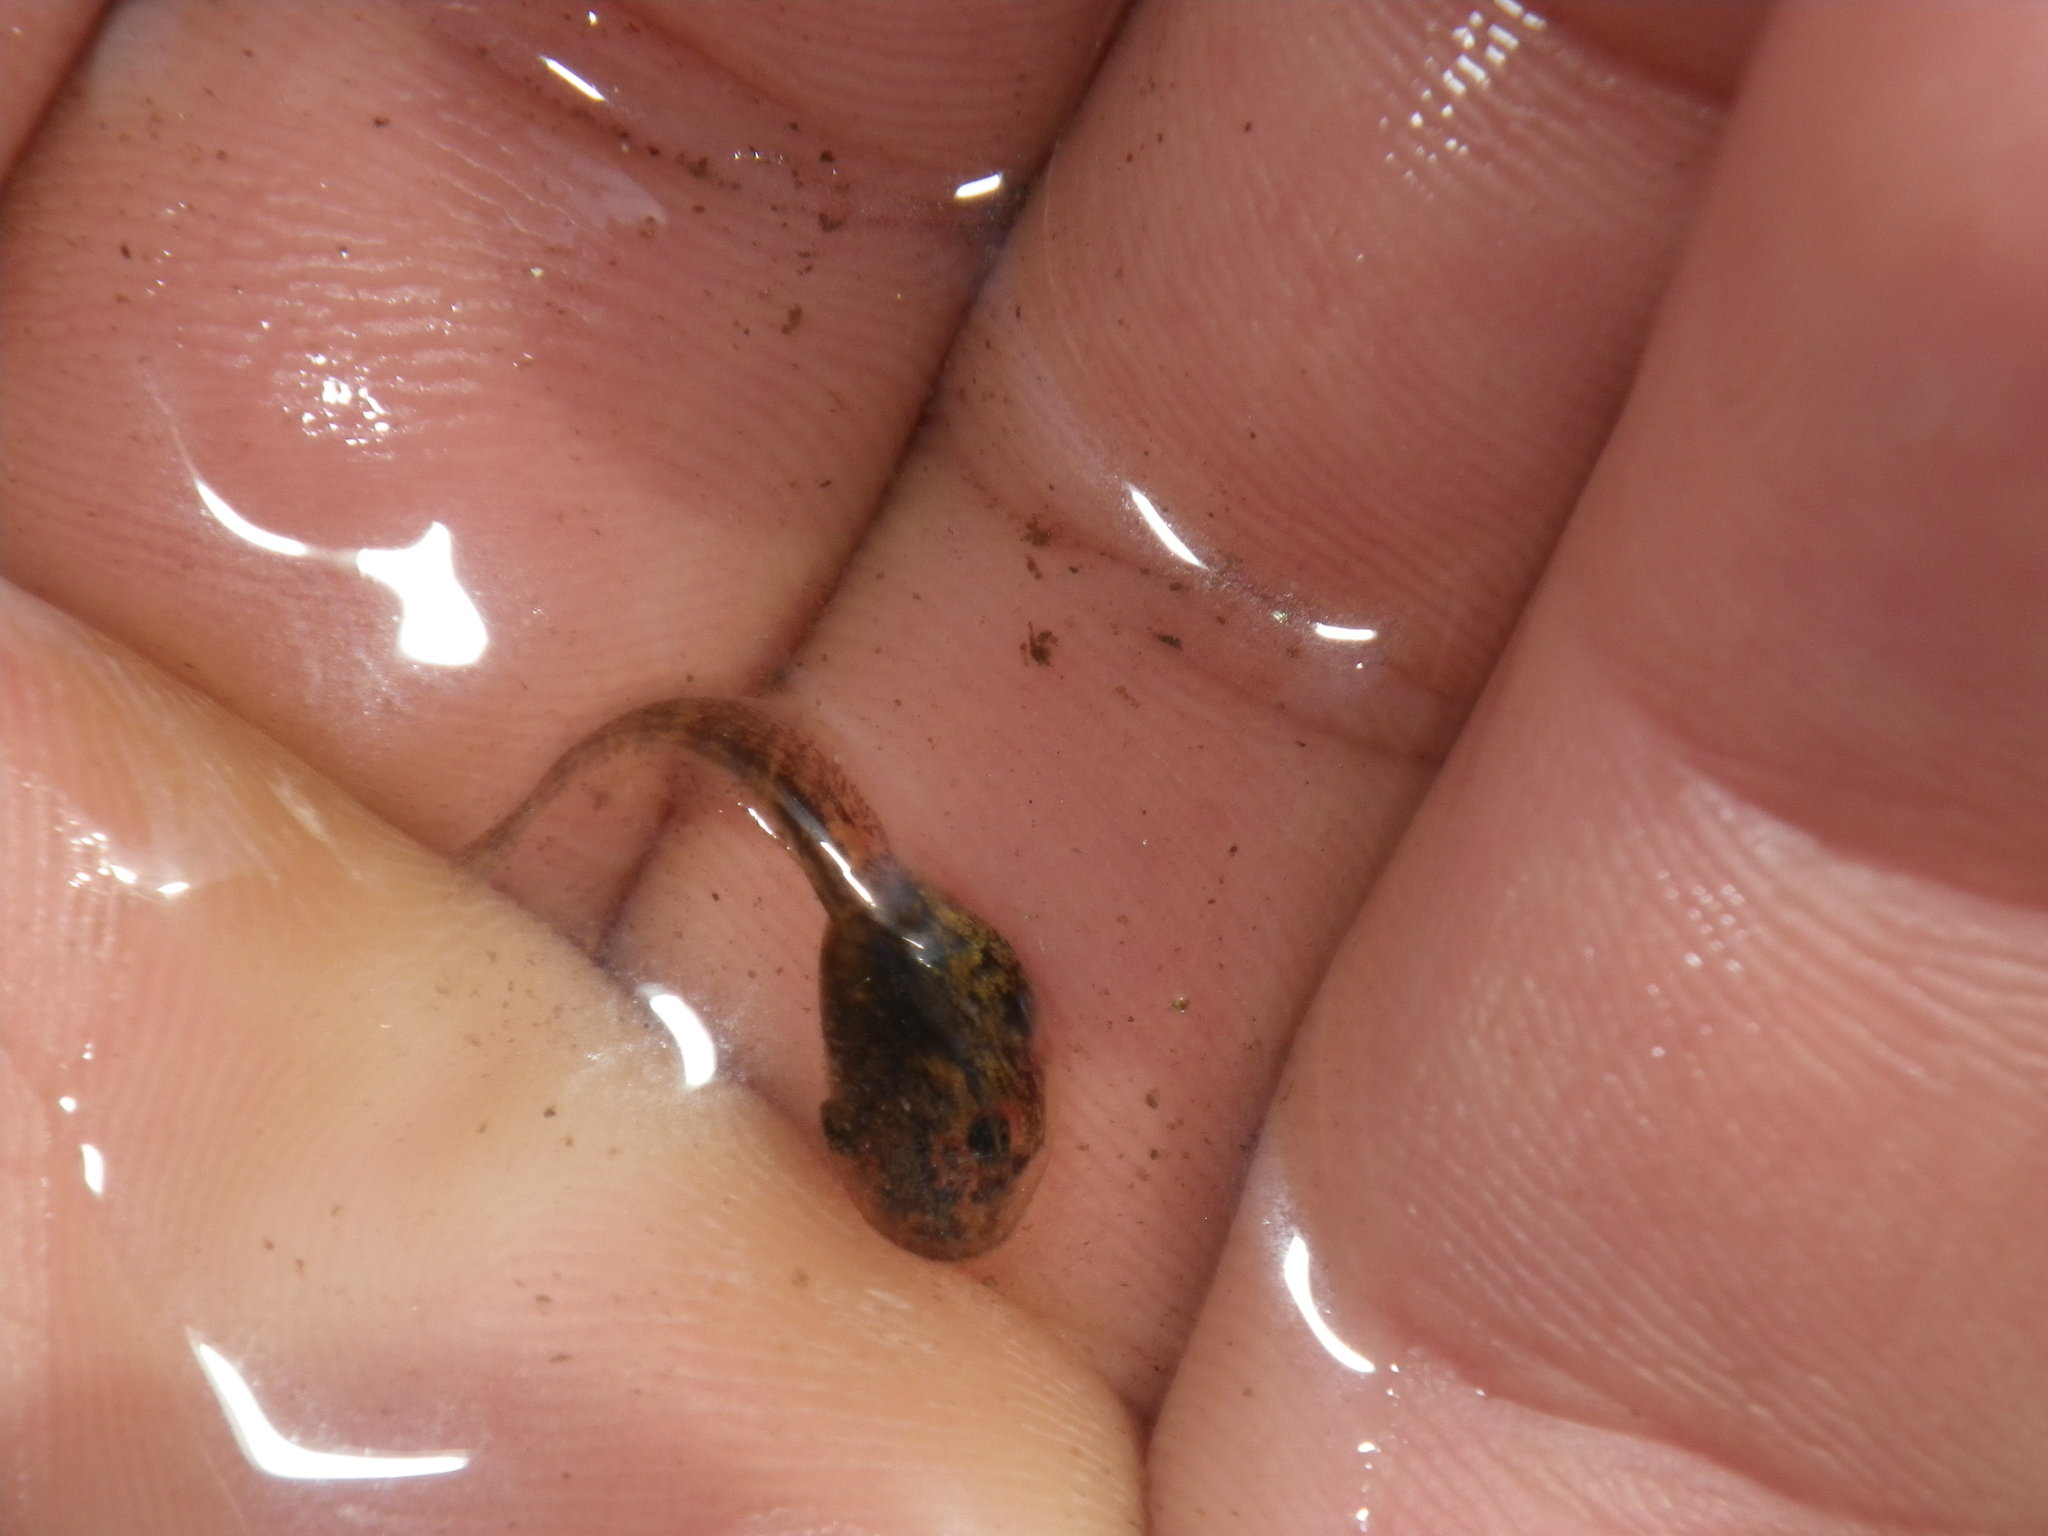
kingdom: Animalia
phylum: Chordata
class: Amphibia
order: Anura
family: Hylidae
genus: Pseudacris
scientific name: Pseudacris regilla
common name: Pacific chorus frog
